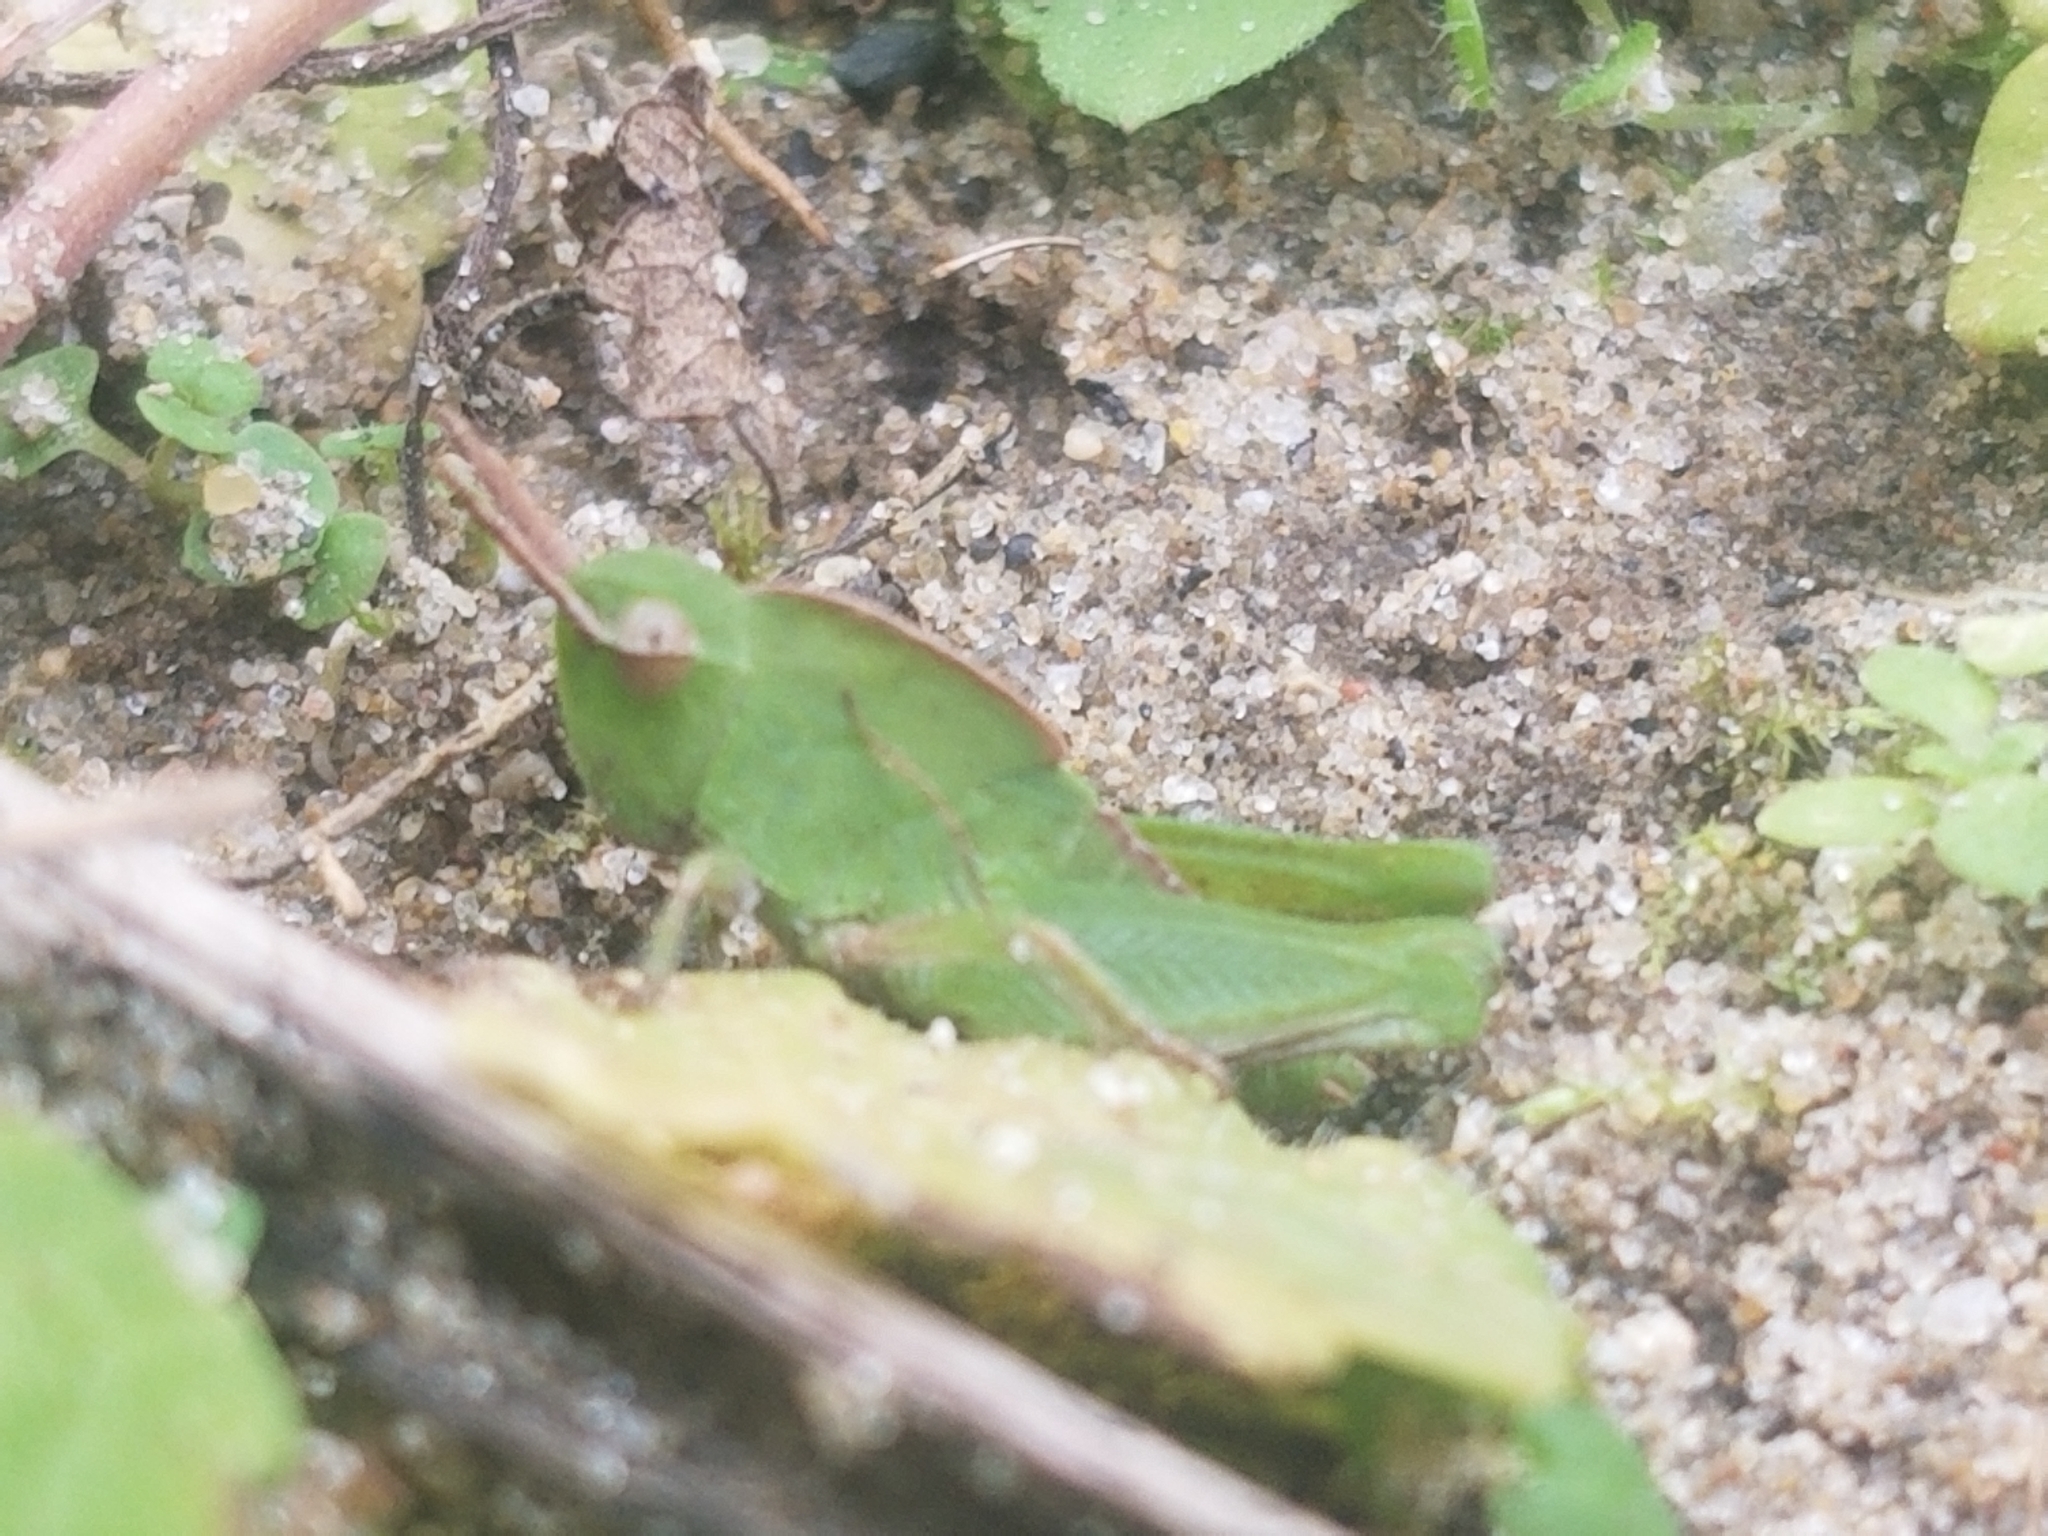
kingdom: Animalia
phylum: Arthropoda
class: Insecta
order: Orthoptera
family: Acrididae
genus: Chortophaga
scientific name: Chortophaga viridifasciata
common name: Green-striped grasshopper
